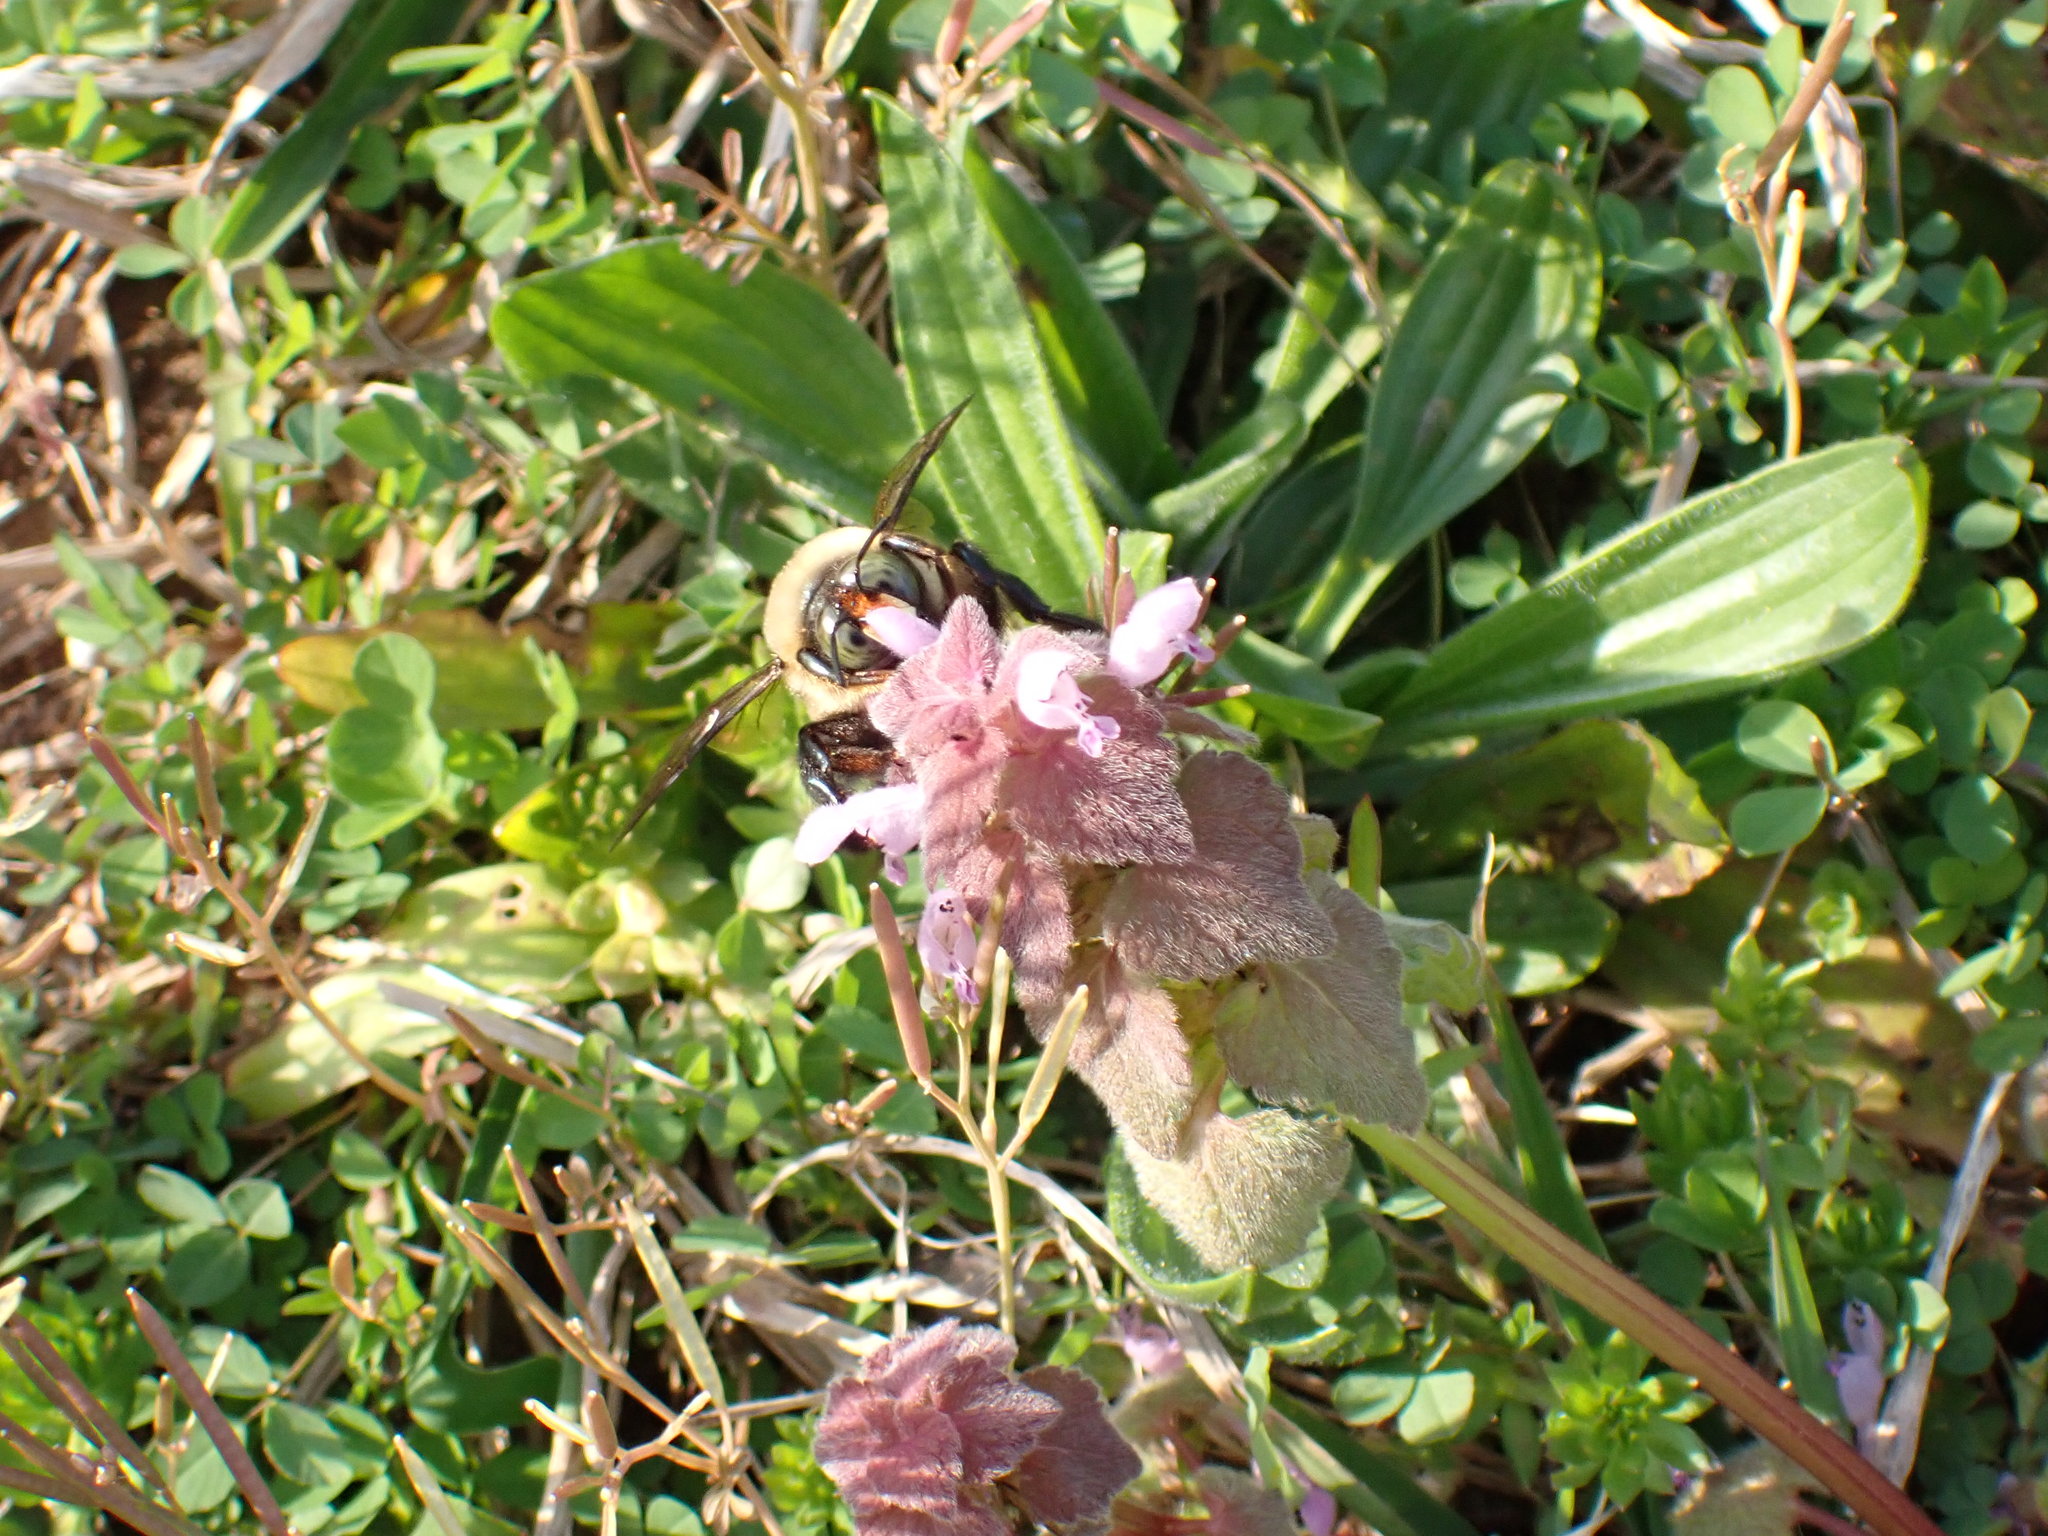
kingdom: Animalia
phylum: Arthropoda
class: Insecta
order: Hymenoptera
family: Apidae
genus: Xylocopa
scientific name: Xylocopa virginica
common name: Carpenter bee
